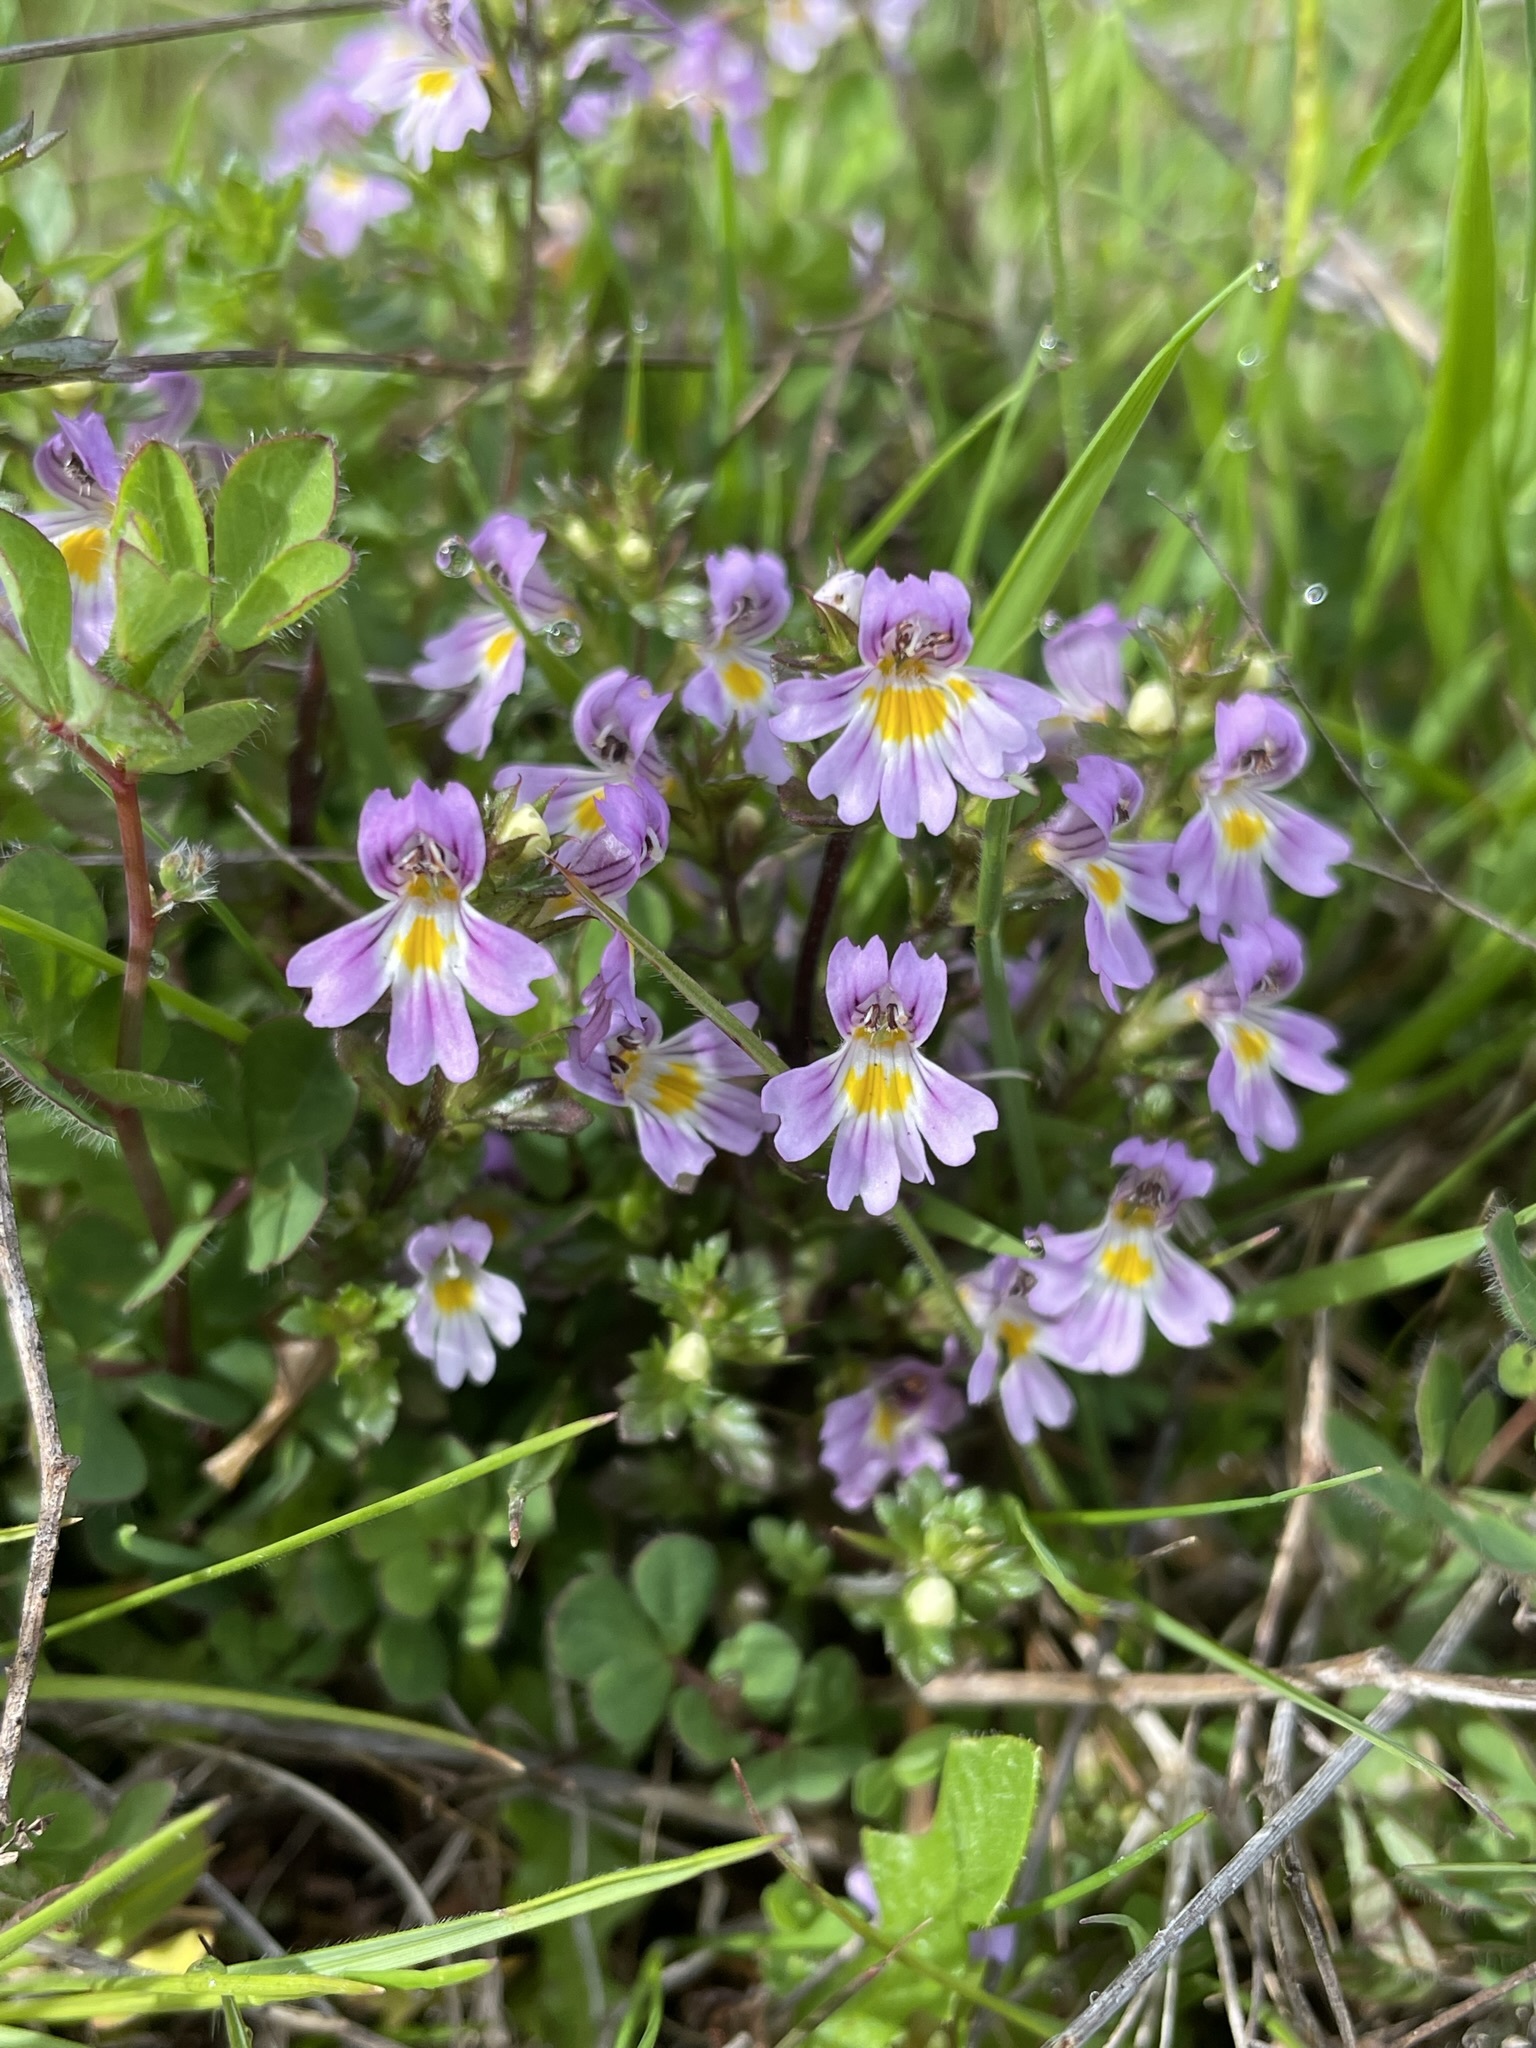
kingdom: Plantae
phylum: Tracheophyta
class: Magnoliopsida
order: Lamiales
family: Orobanchaceae
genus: Euphrasia
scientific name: Euphrasia nemorosa
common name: Common eyebright
